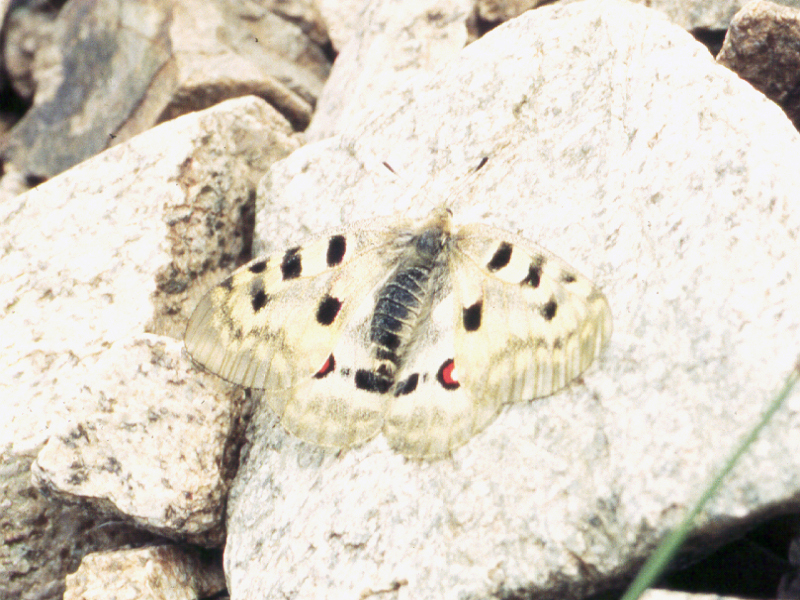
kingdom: Animalia
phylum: Arthropoda
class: Insecta
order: Lepidoptera
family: Papilionidae
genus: Parnassius
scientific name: Parnassius apollo
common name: Apollo
